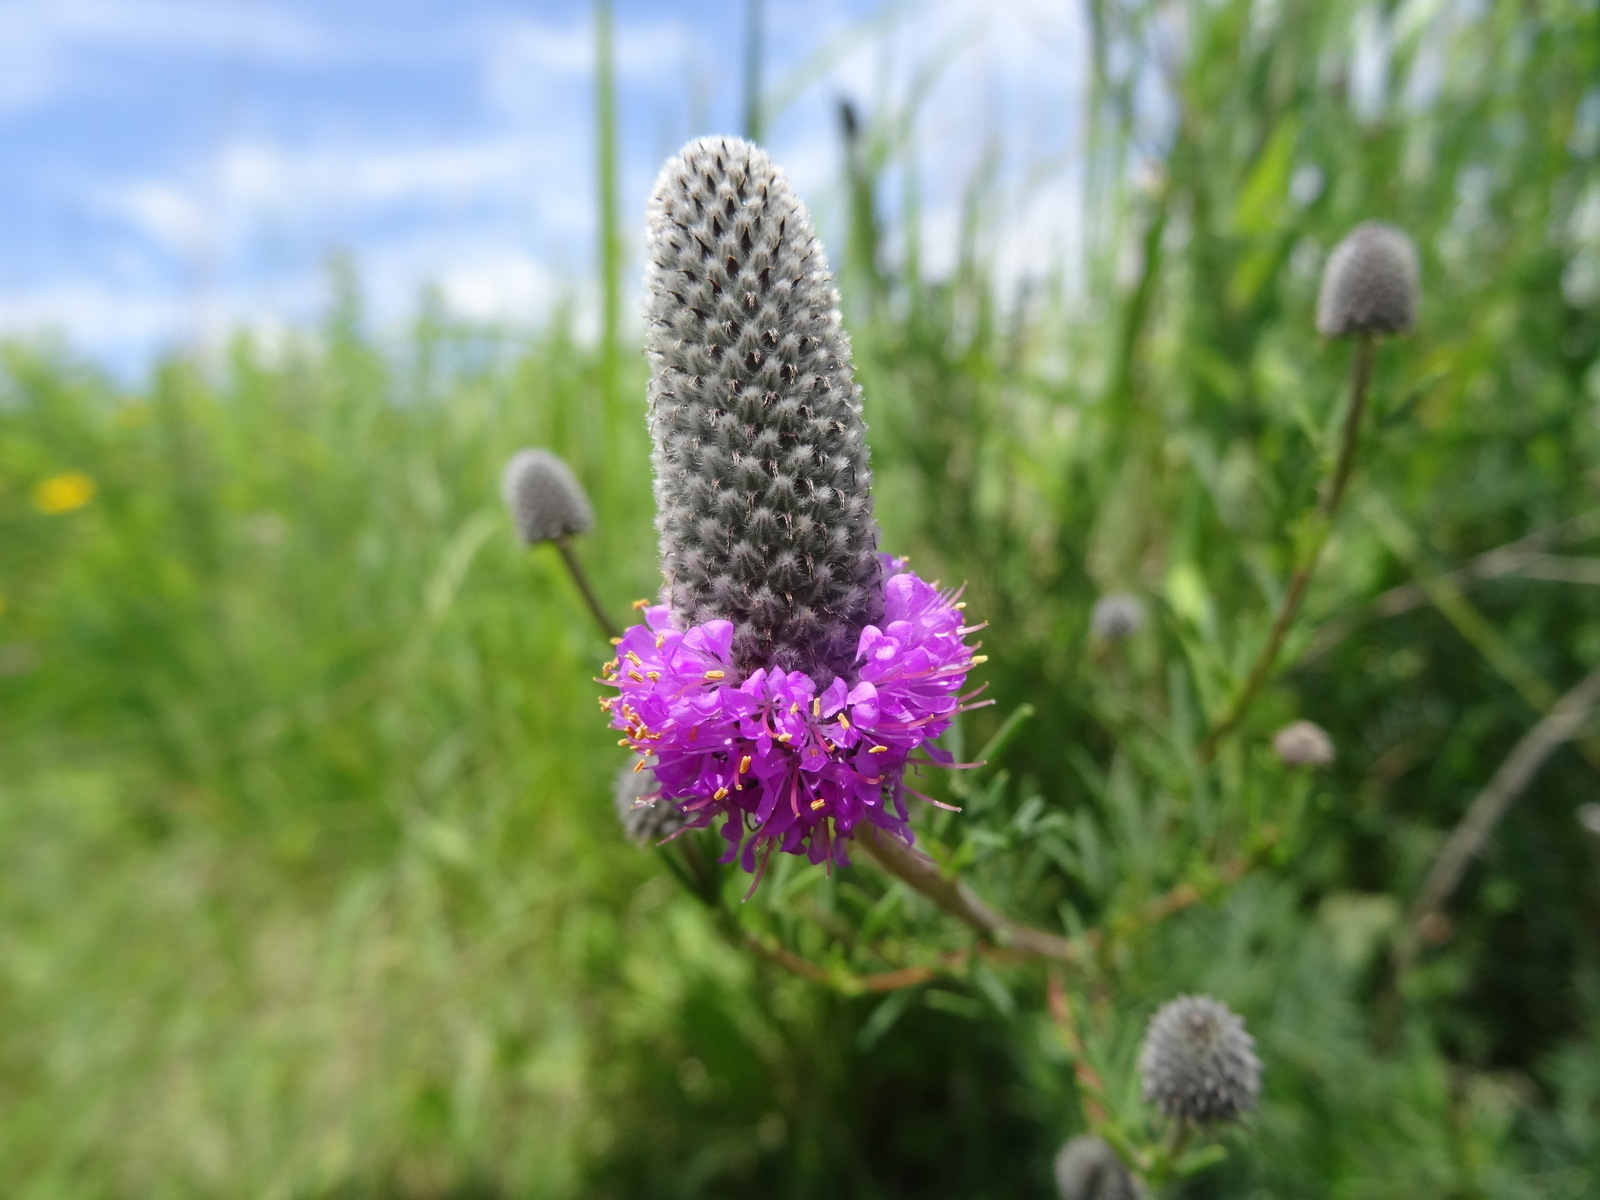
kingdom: Plantae
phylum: Tracheophyta
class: Magnoliopsida
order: Fabales
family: Fabaceae
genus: Dalea
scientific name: Dalea purpurea
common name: Purple prairie-clover
